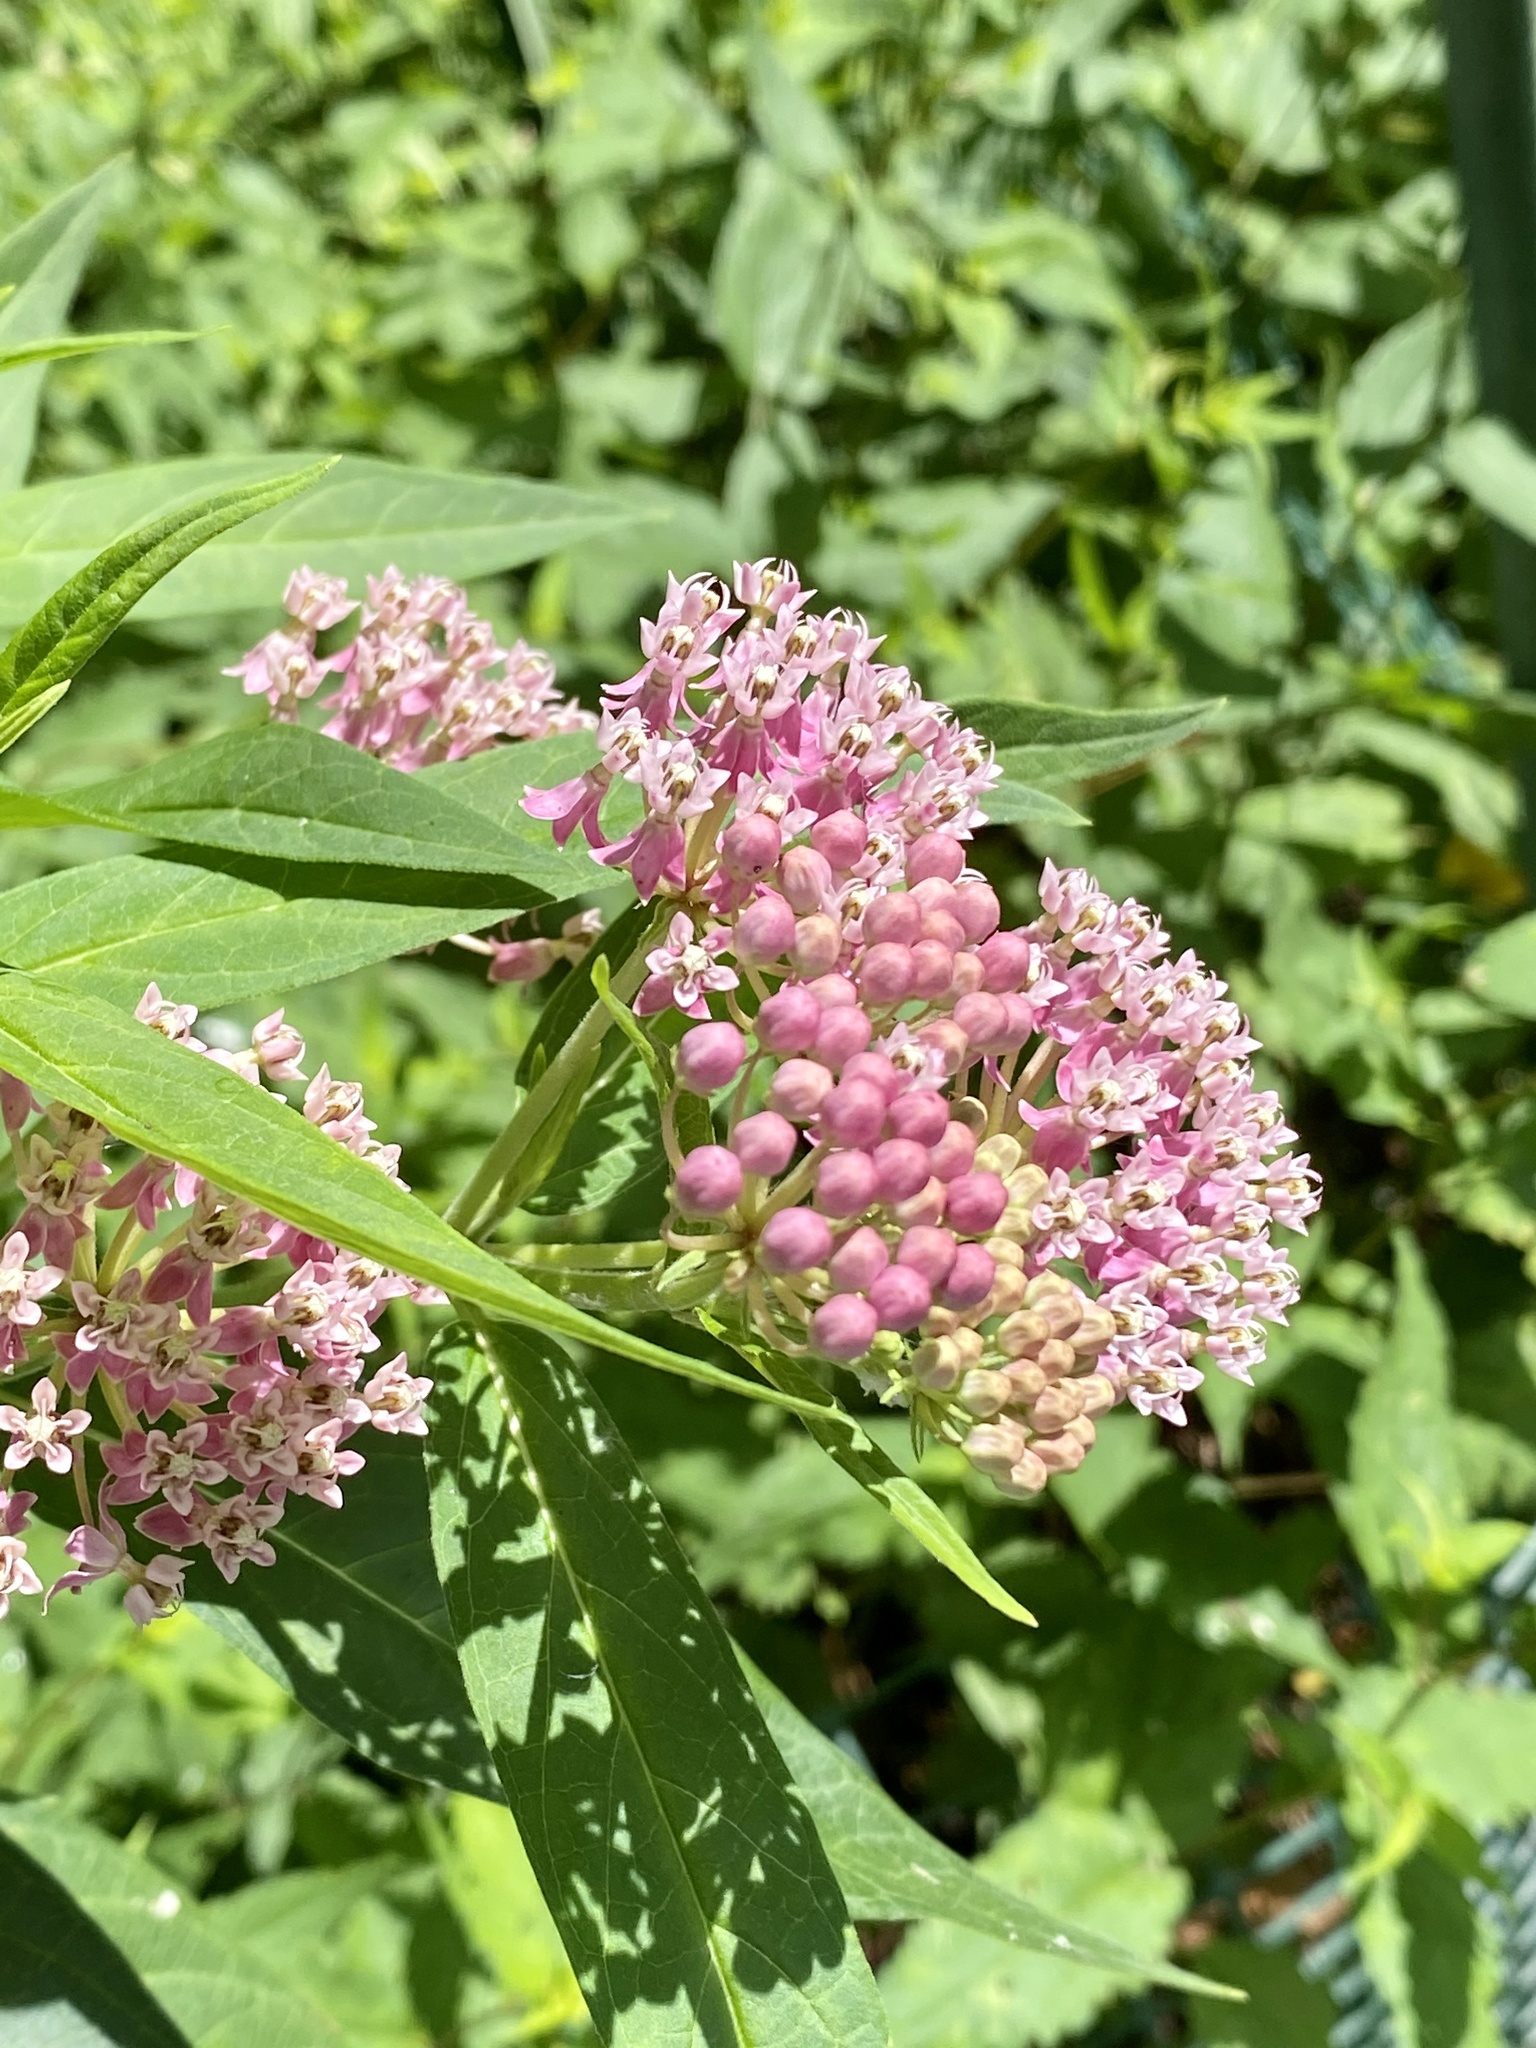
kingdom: Plantae
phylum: Tracheophyta
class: Magnoliopsida
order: Gentianales
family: Apocynaceae
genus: Asclepias
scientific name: Asclepias incarnata
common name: Swamp milkweed
